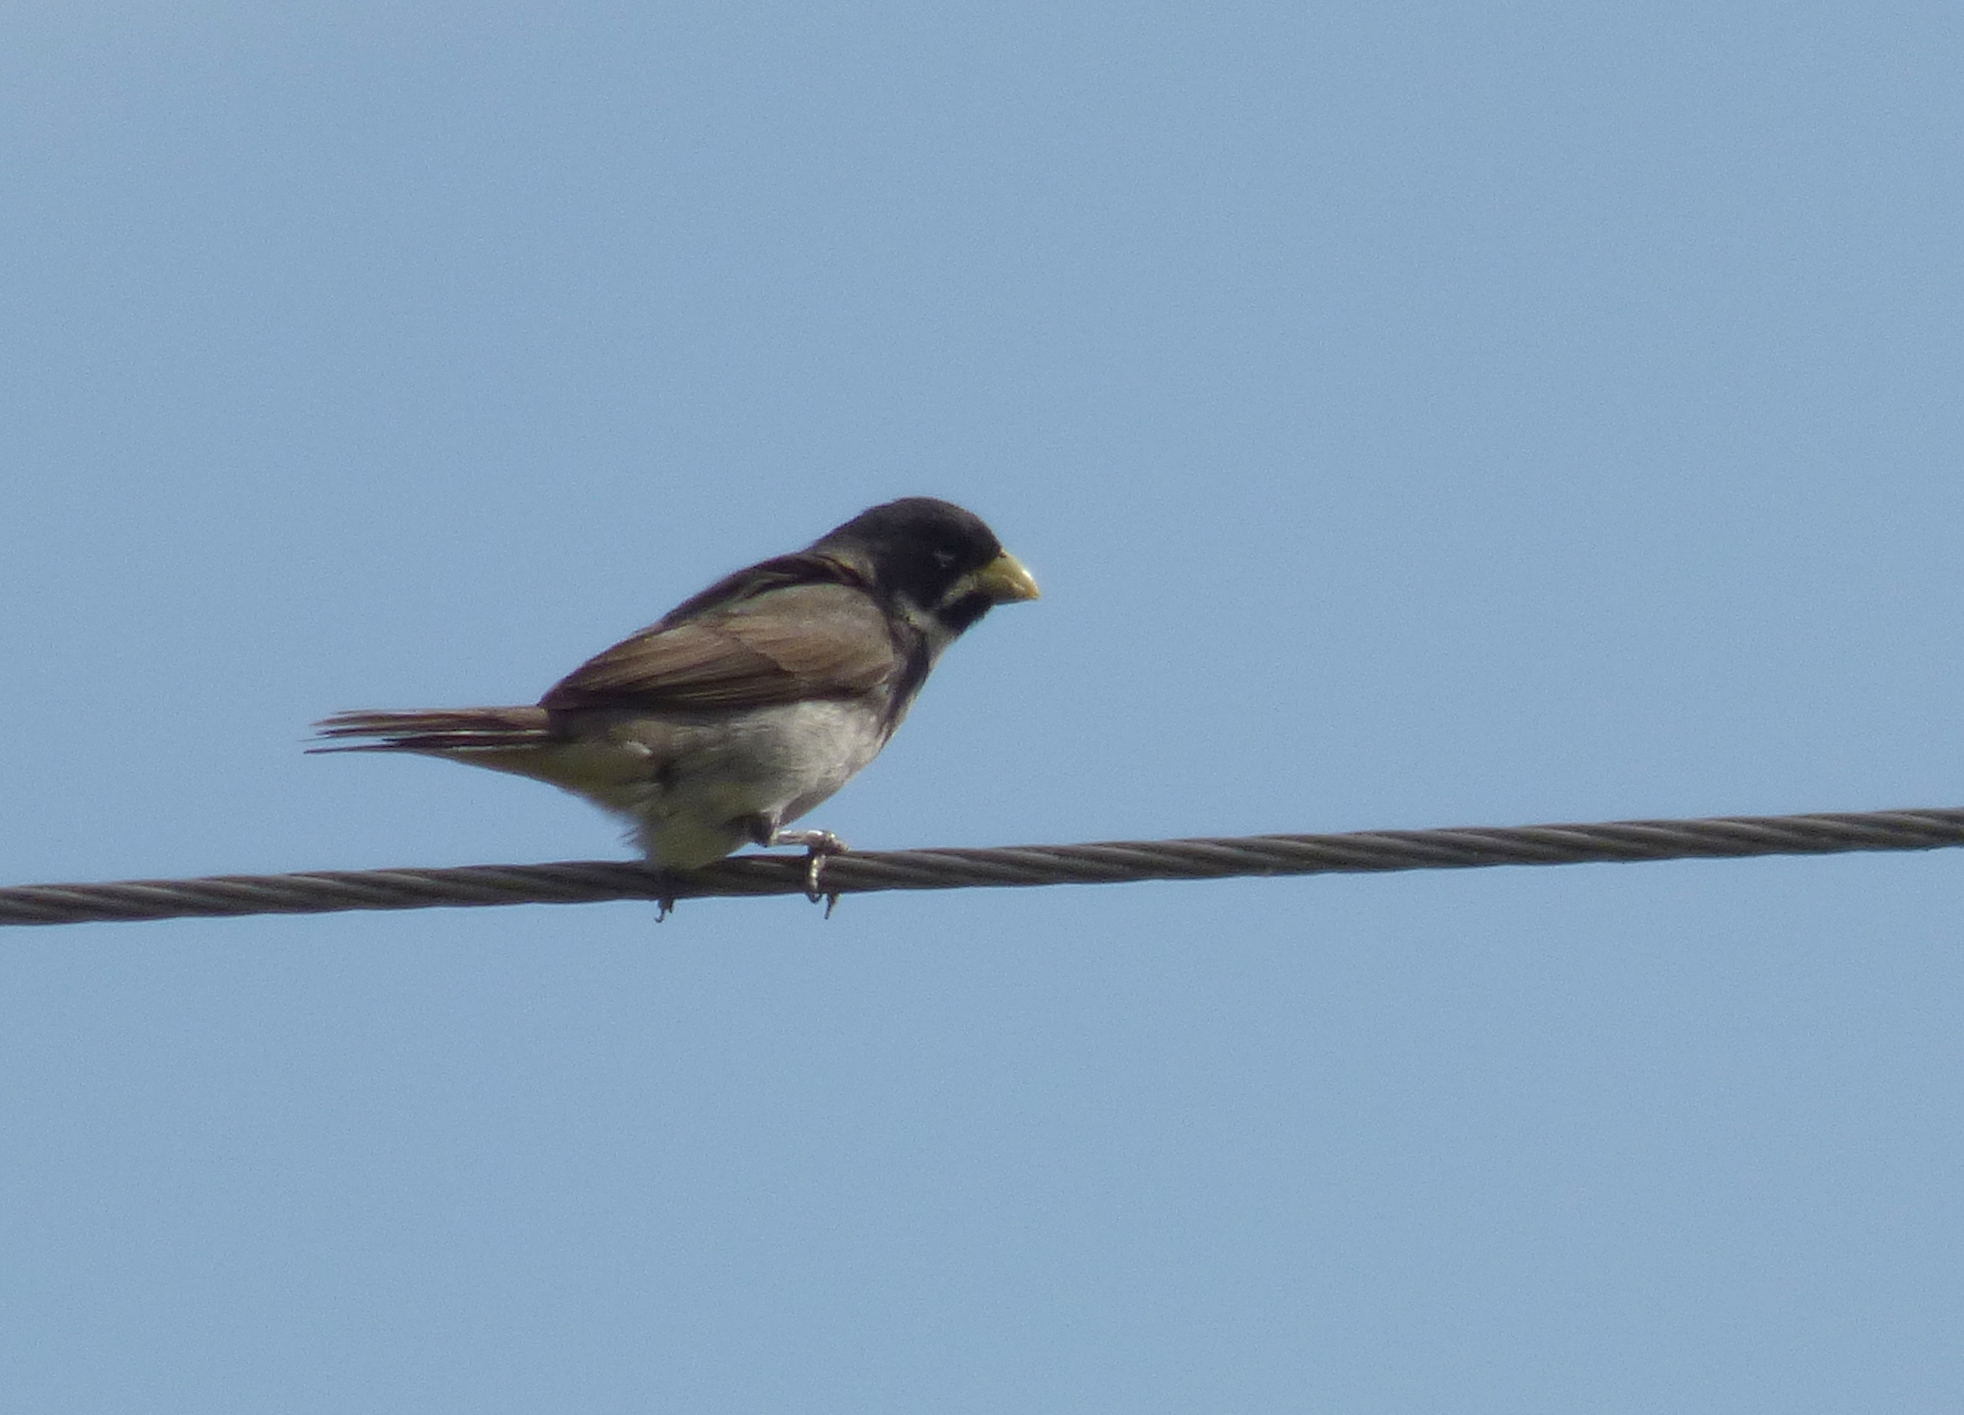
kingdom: Animalia
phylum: Chordata
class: Aves
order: Passeriformes
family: Thraupidae
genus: Sporophila
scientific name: Sporophila caerulescens
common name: Double-collared seedeater
